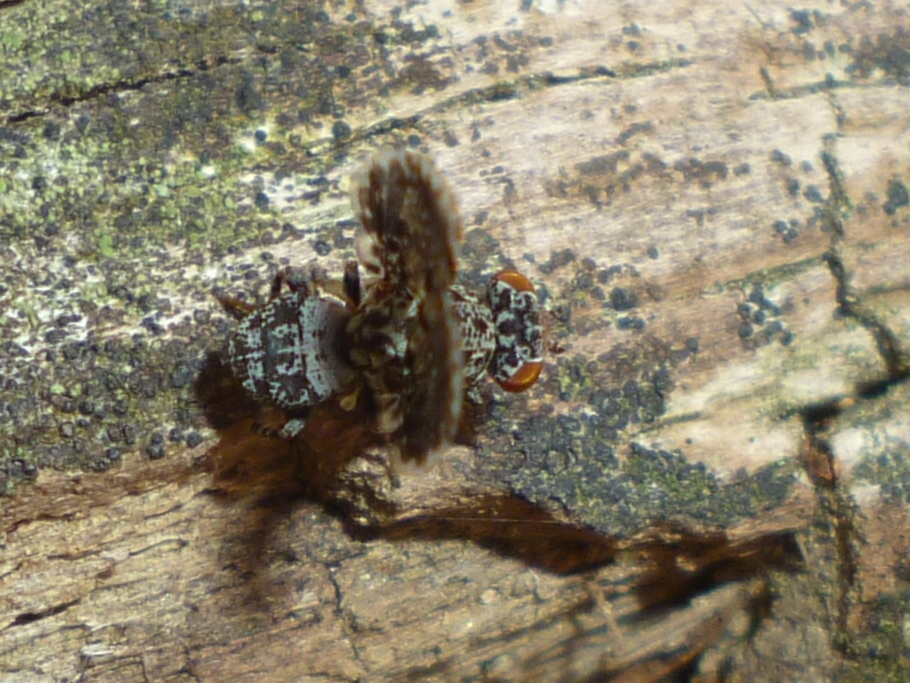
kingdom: Animalia
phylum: Arthropoda
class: Insecta
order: Diptera
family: Ulidiidae
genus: Callopistromyia
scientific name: Callopistromyia annulipes
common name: Peacock fly
